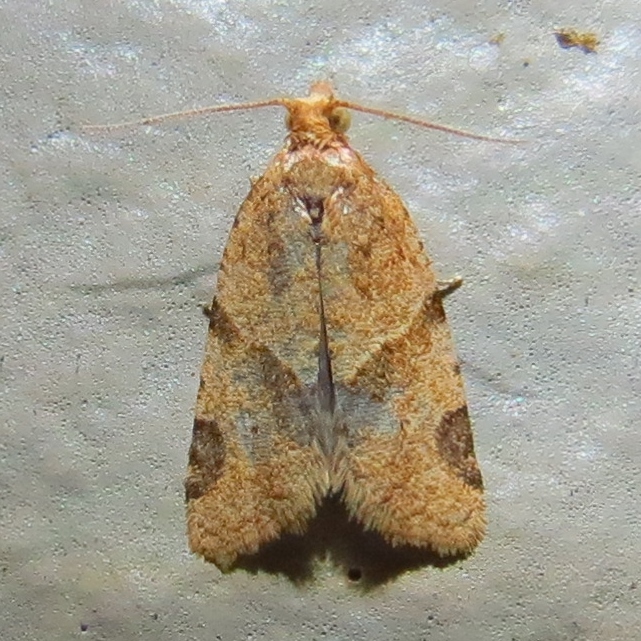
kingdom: Animalia
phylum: Arthropoda
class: Insecta
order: Lepidoptera
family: Tortricidae
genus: Clepsis
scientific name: Clepsis peritana
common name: Garden tortrix
